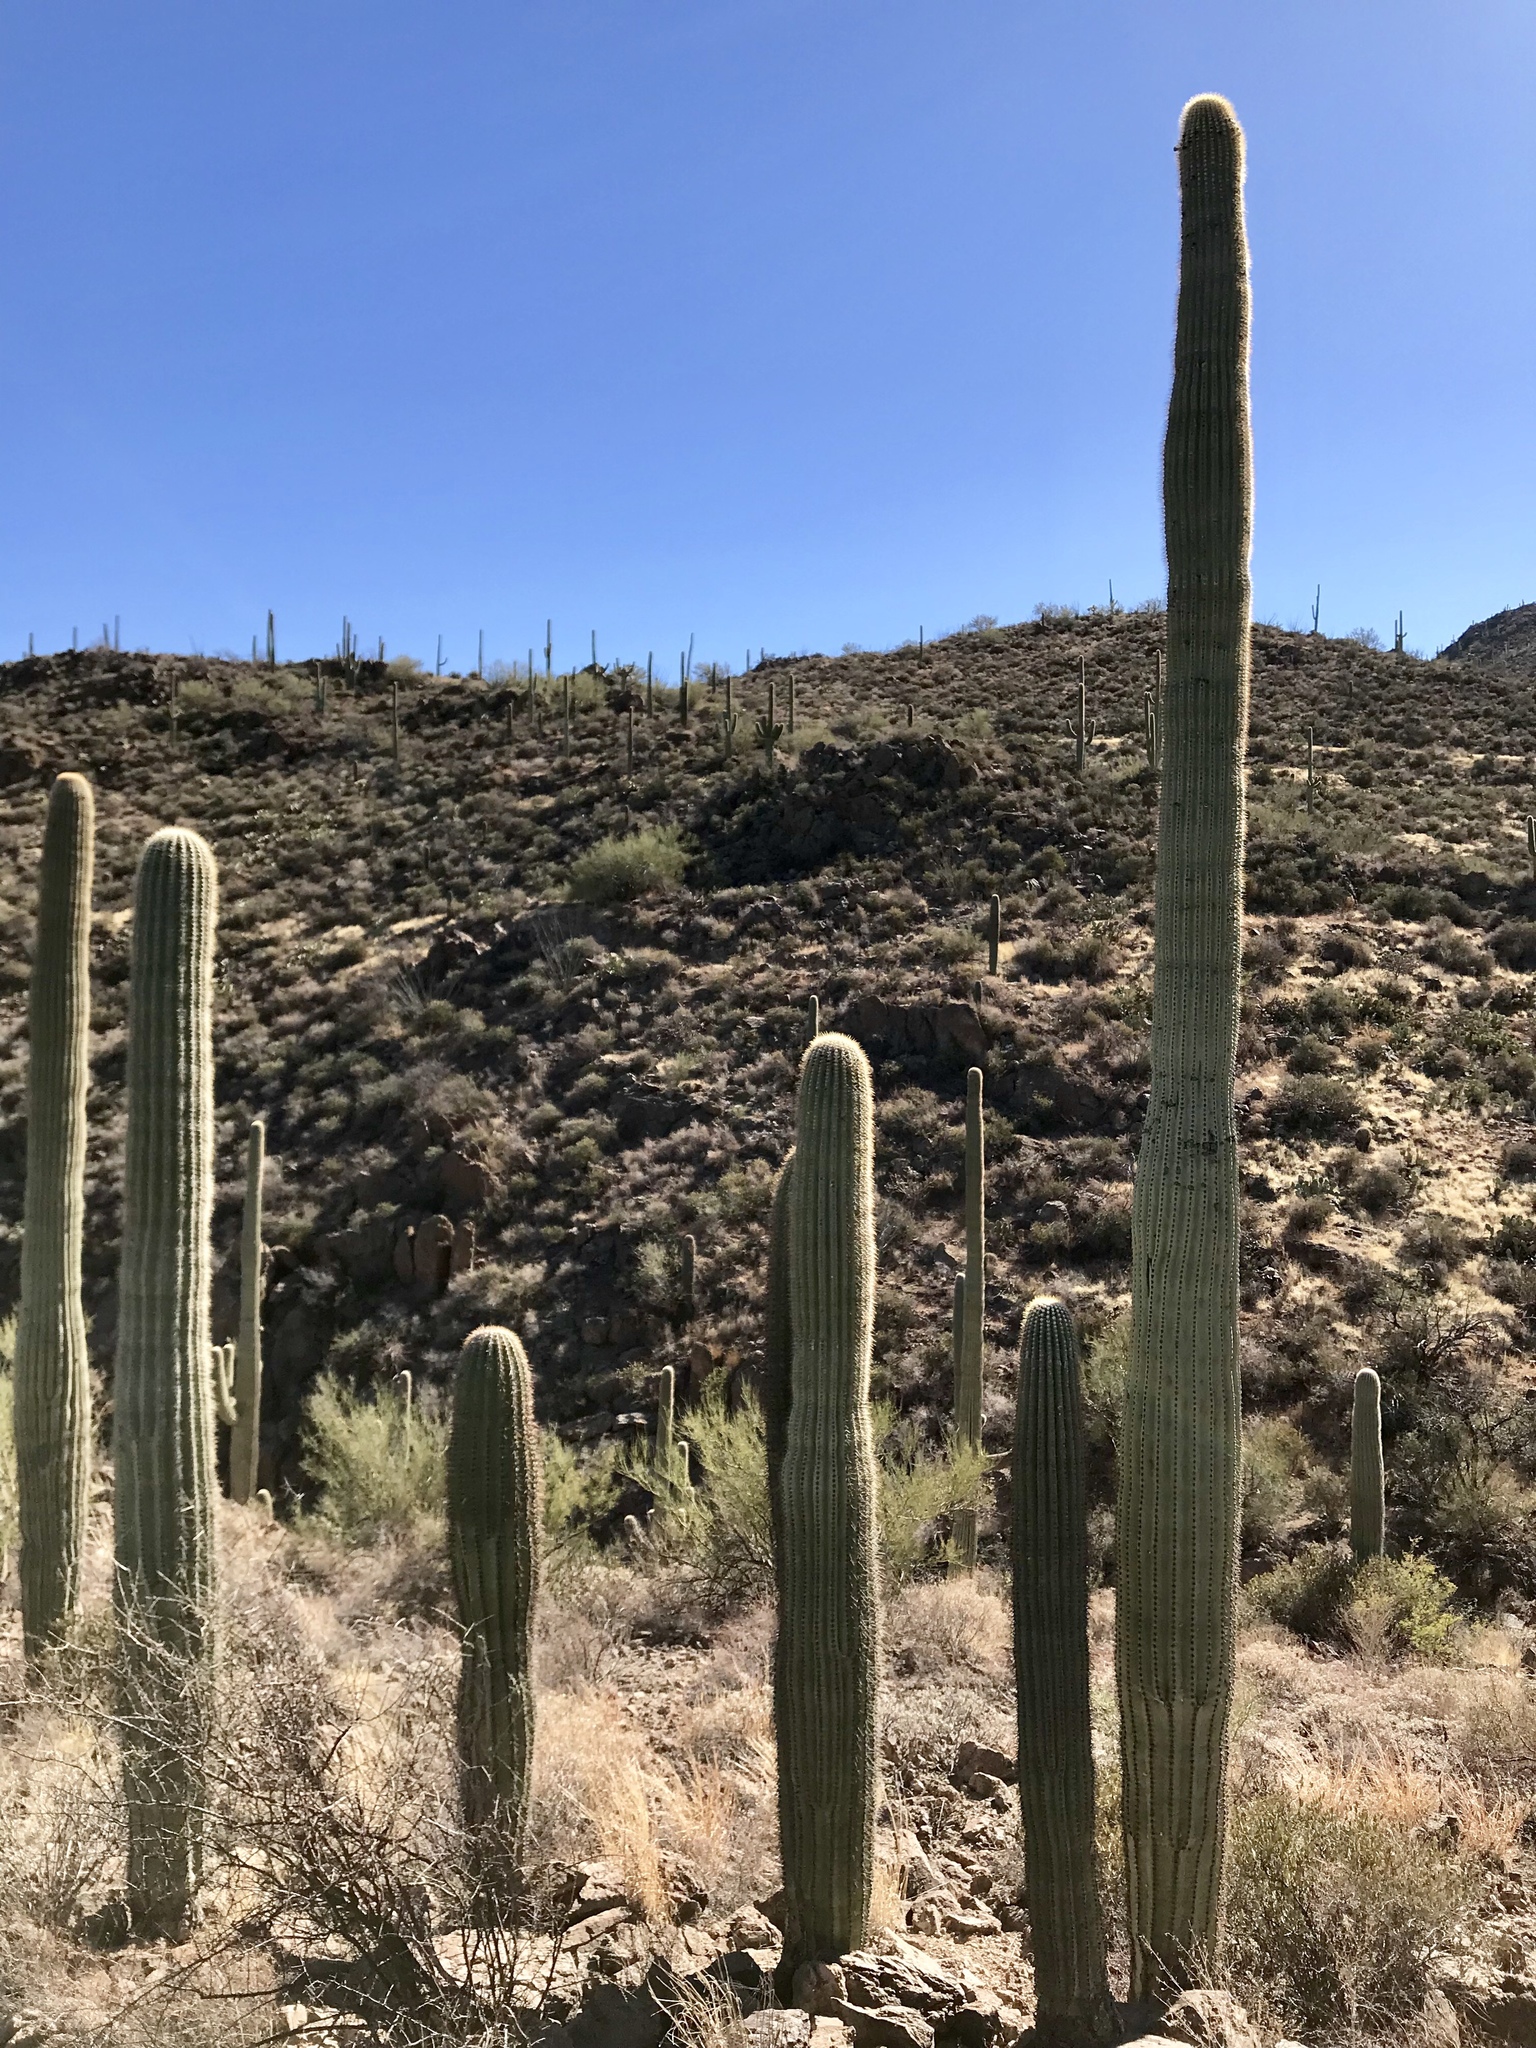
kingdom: Plantae
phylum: Tracheophyta
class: Magnoliopsida
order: Caryophyllales
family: Cactaceae
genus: Carnegiea
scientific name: Carnegiea gigantea
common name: Saguaro
